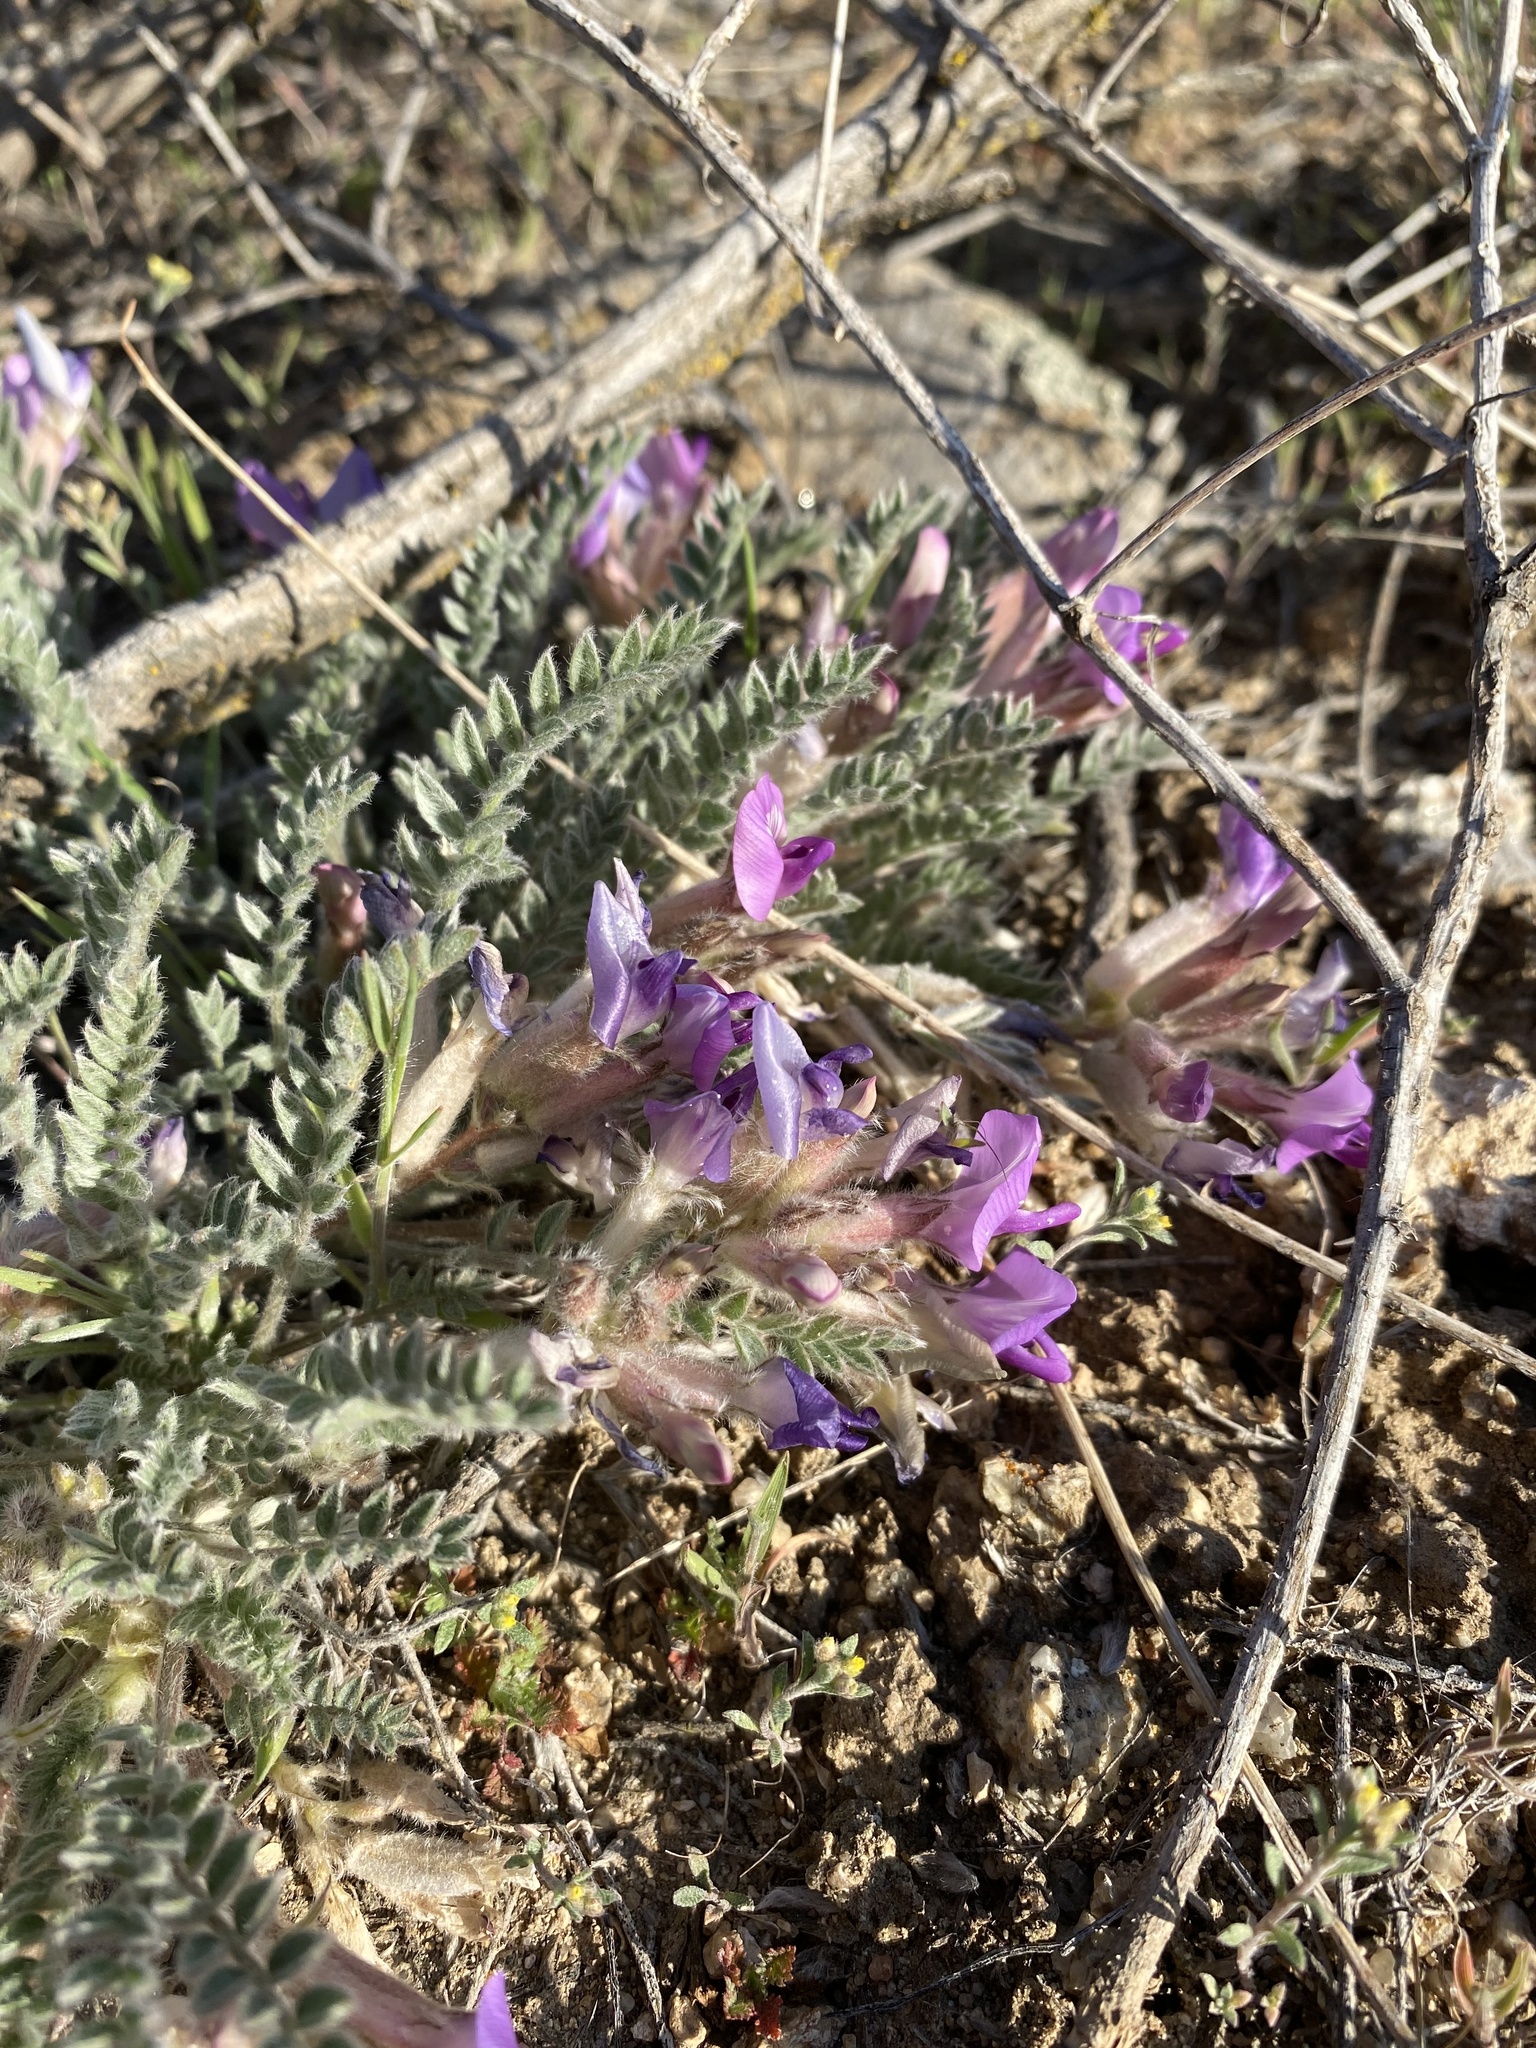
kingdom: Plantae
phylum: Tracheophyta
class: Magnoliopsida
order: Fabales
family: Fabaceae
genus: Astragalus
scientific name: Astragalus purshii
